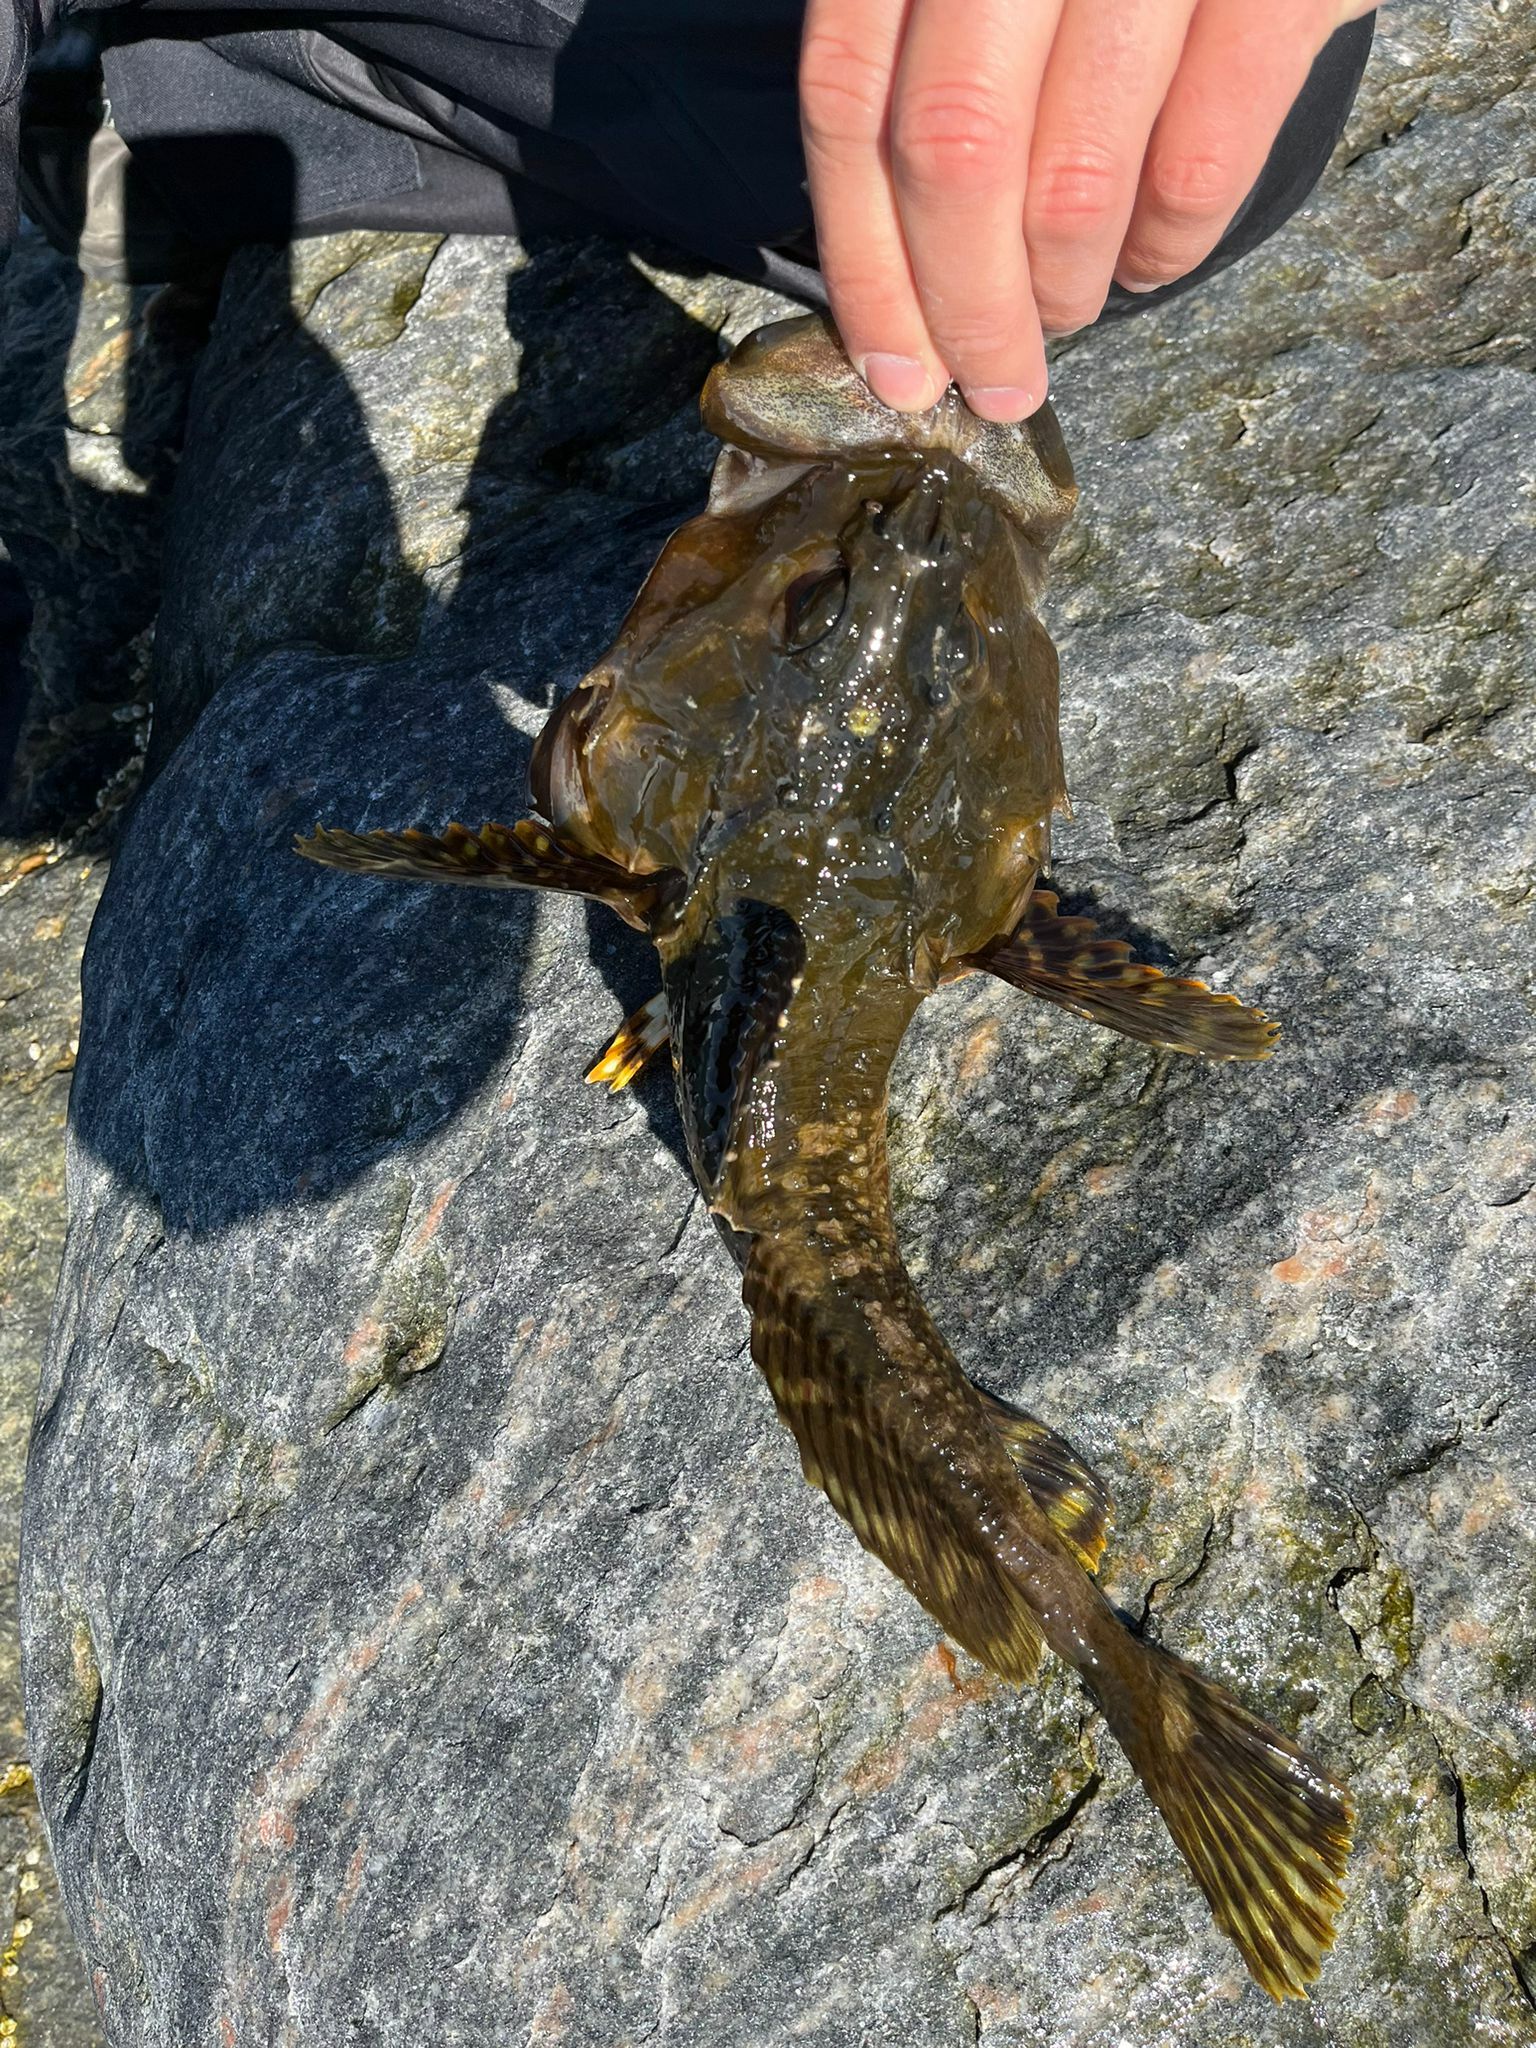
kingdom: Animalia
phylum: Chordata
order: Scorpaeniformes
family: Cottidae
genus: Myoxocephalus
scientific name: Myoxocephalus scorpius
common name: Shorthorn sculpin
